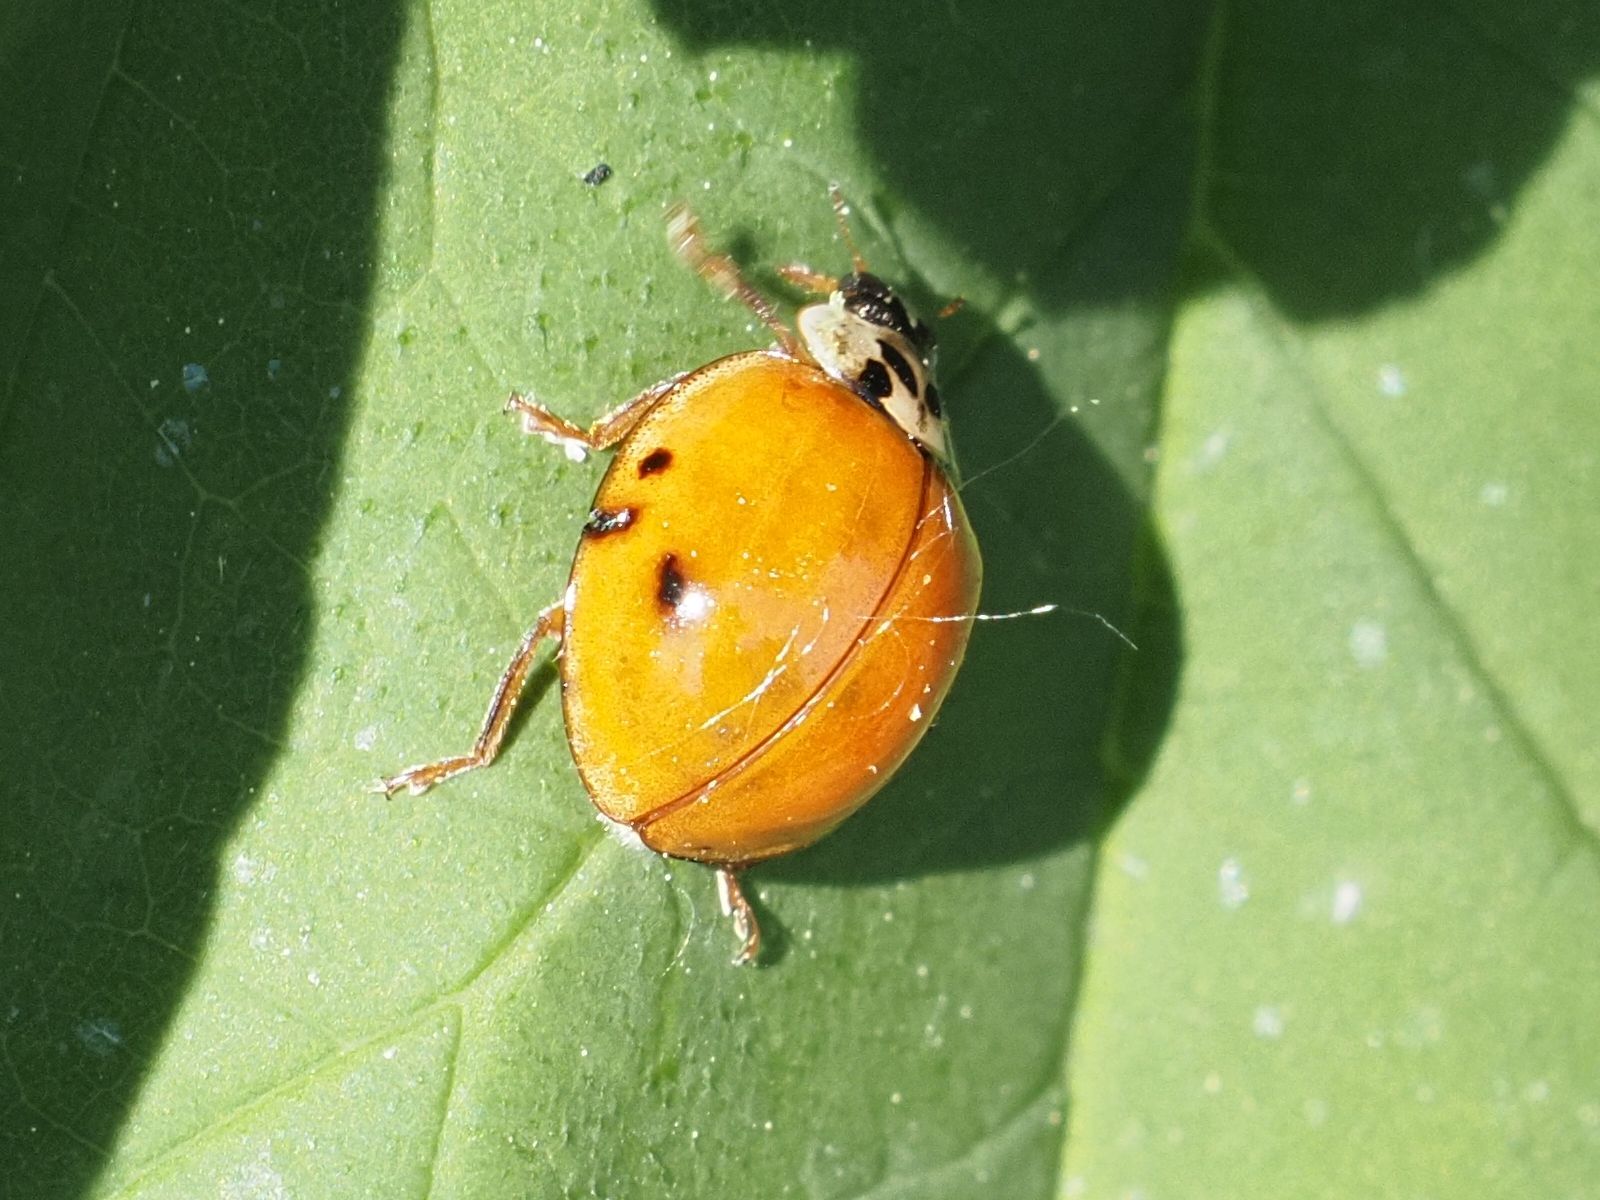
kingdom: Animalia
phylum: Arthropoda
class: Insecta
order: Coleoptera
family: Coccinellidae
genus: Harmonia
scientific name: Harmonia axyridis
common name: Harlequin ladybird
